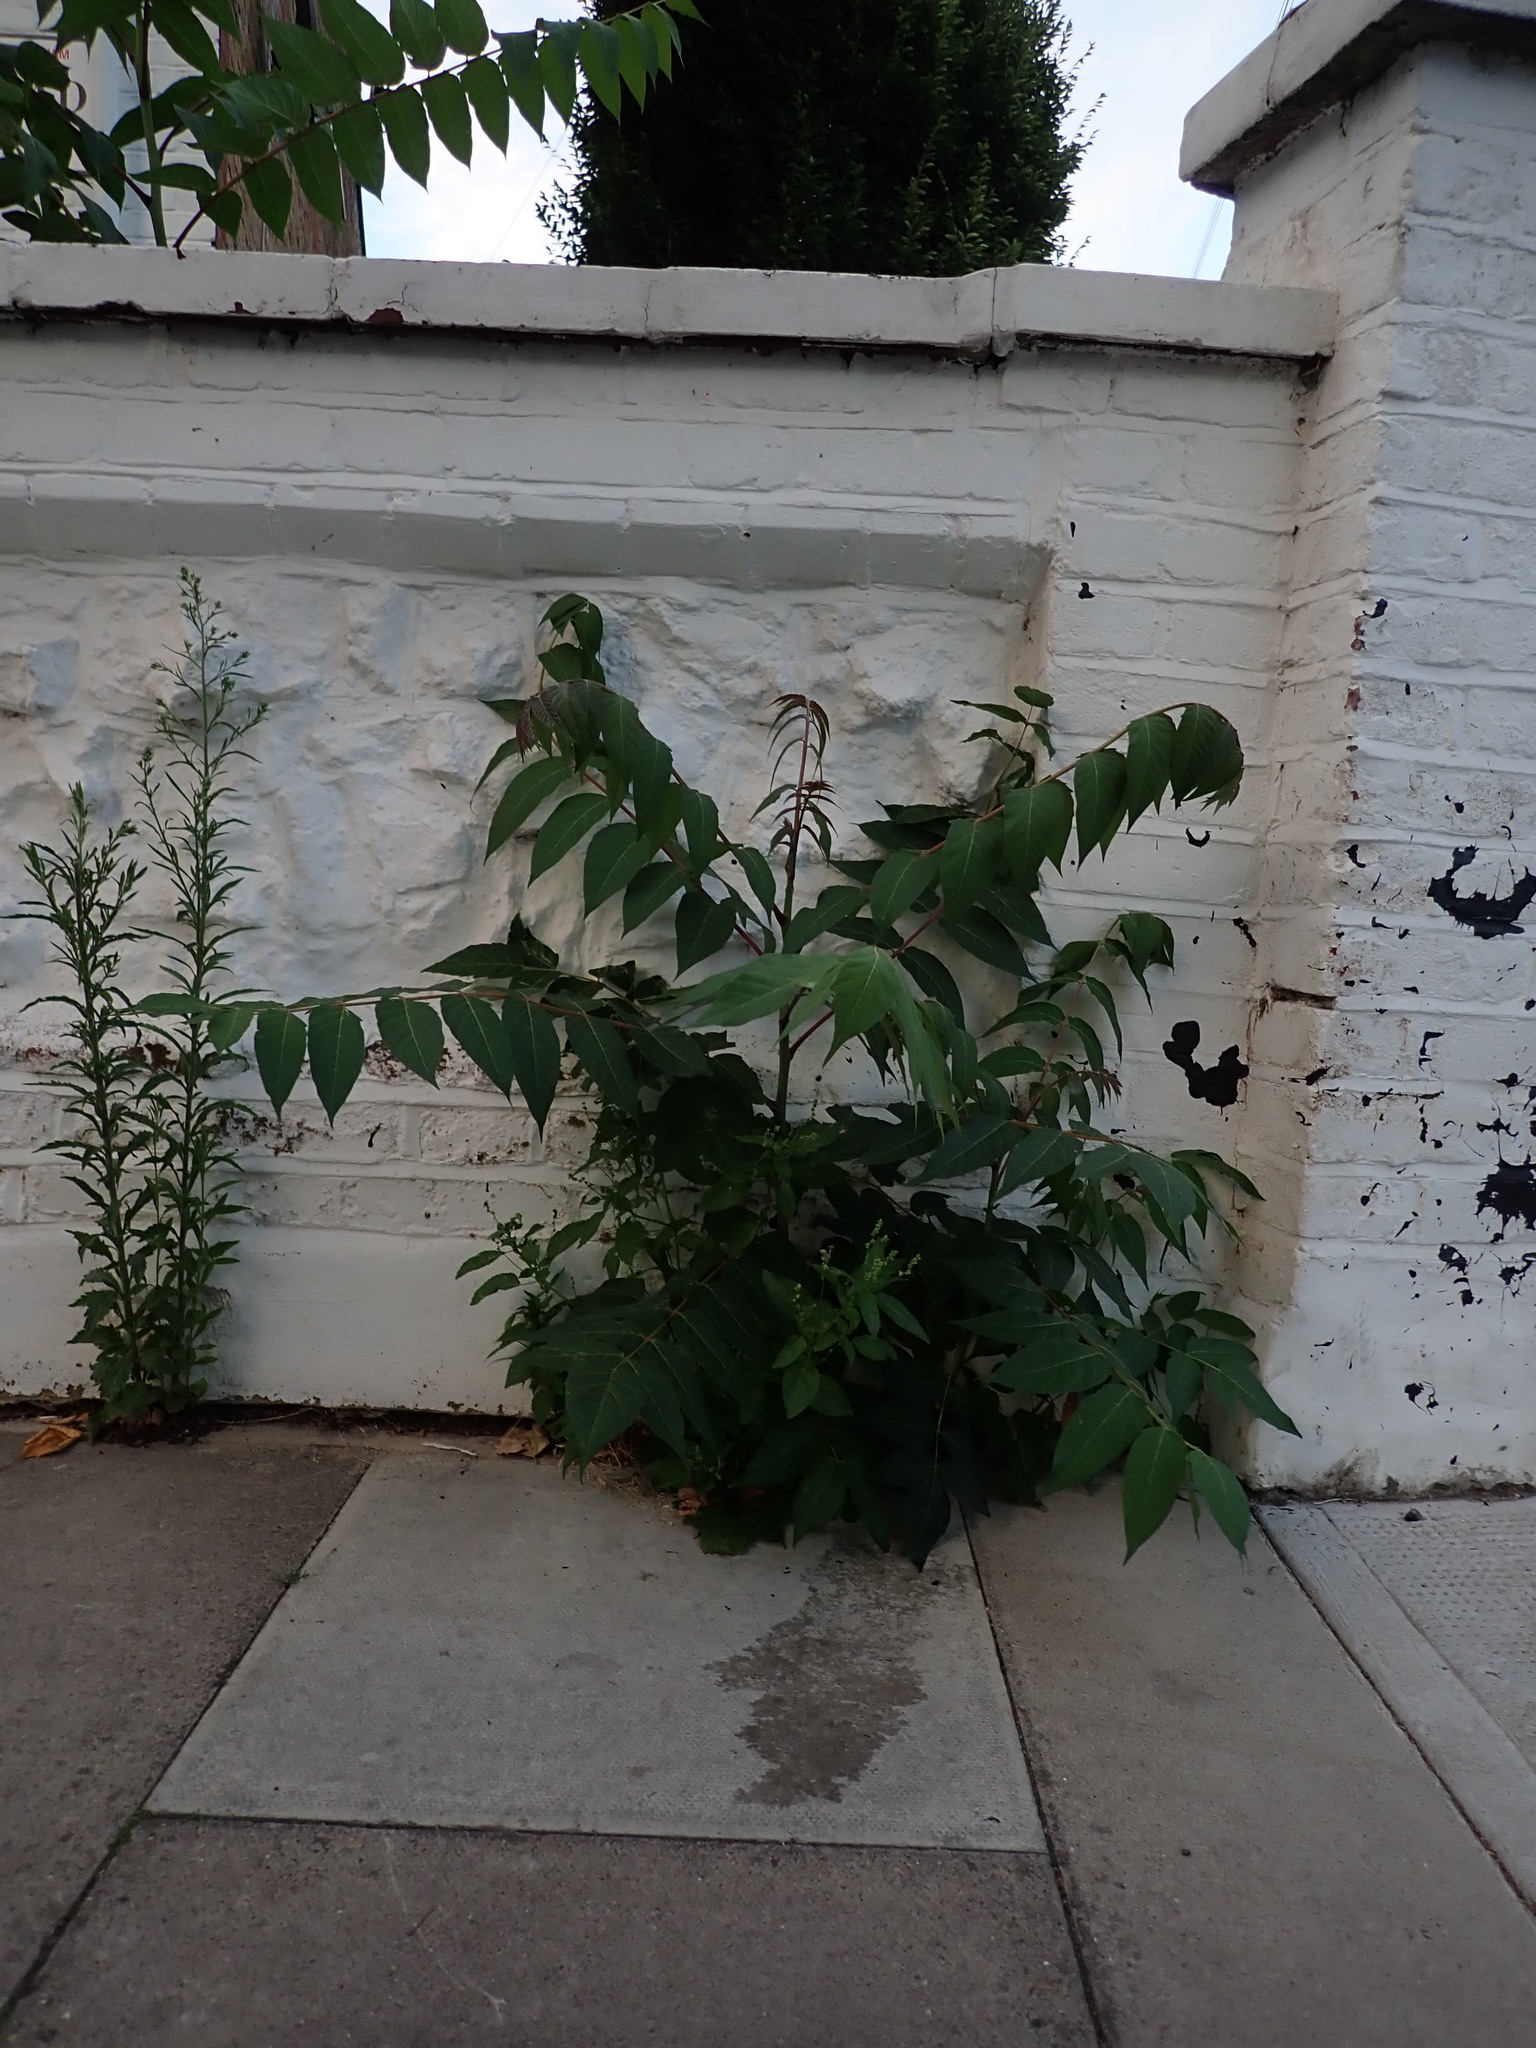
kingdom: Plantae
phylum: Tracheophyta
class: Magnoliopsida
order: Sapindales
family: Simaroubaceae
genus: Ailanthus
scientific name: Ailanthus altissima
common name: Tree-of-heaven
